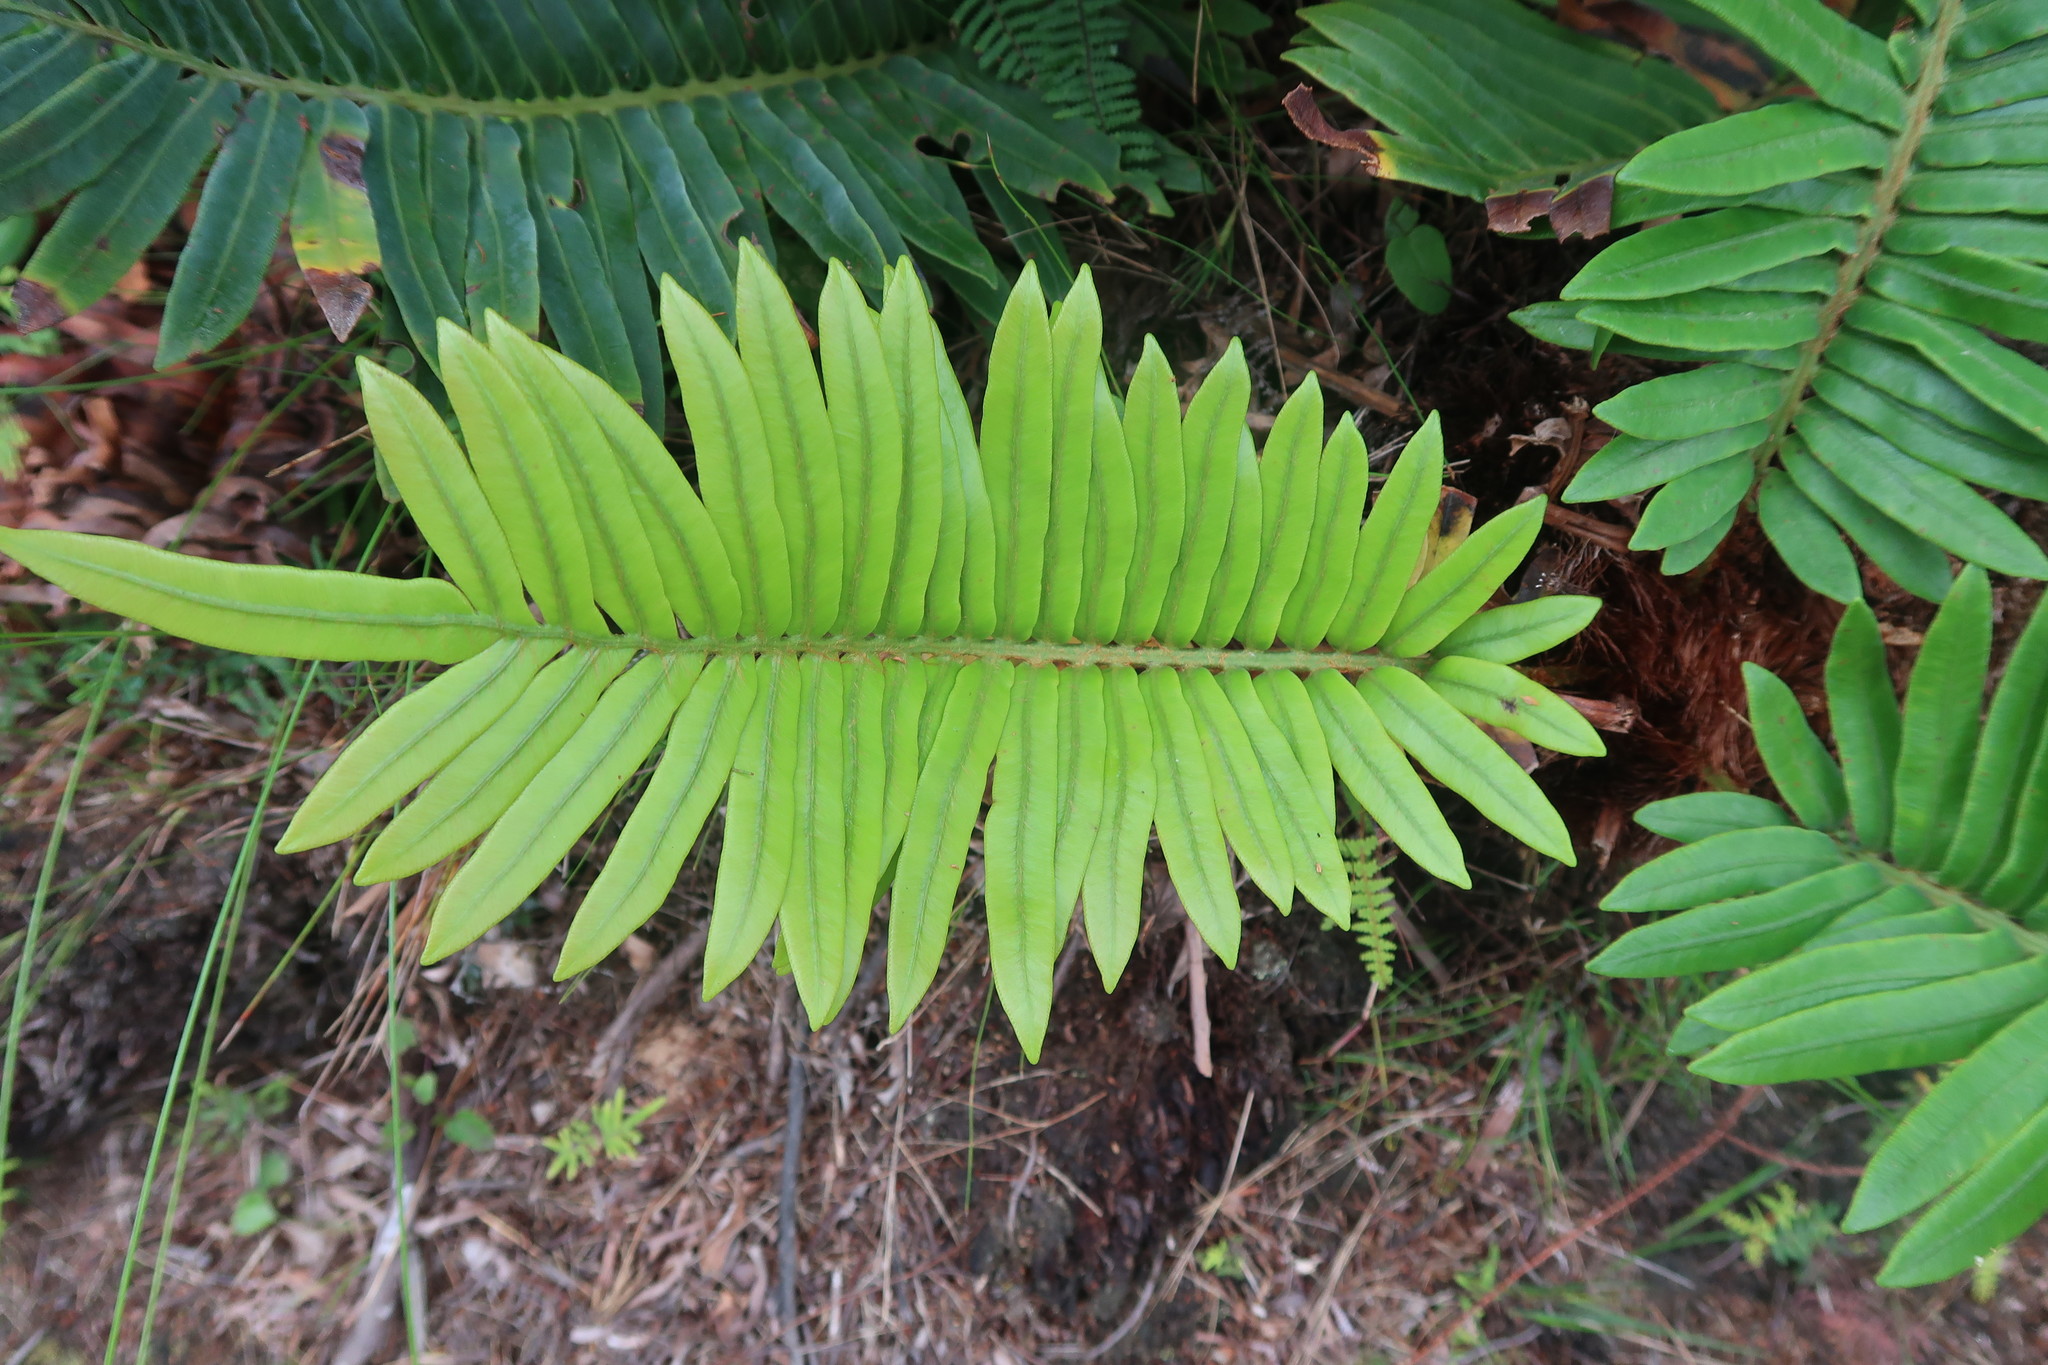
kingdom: Plantae
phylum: Tracheophyta
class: Polypodiopsida
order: Polypodiales
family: Blechnaceae
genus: Lomariocycas
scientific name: Lomariocycas tabularis
